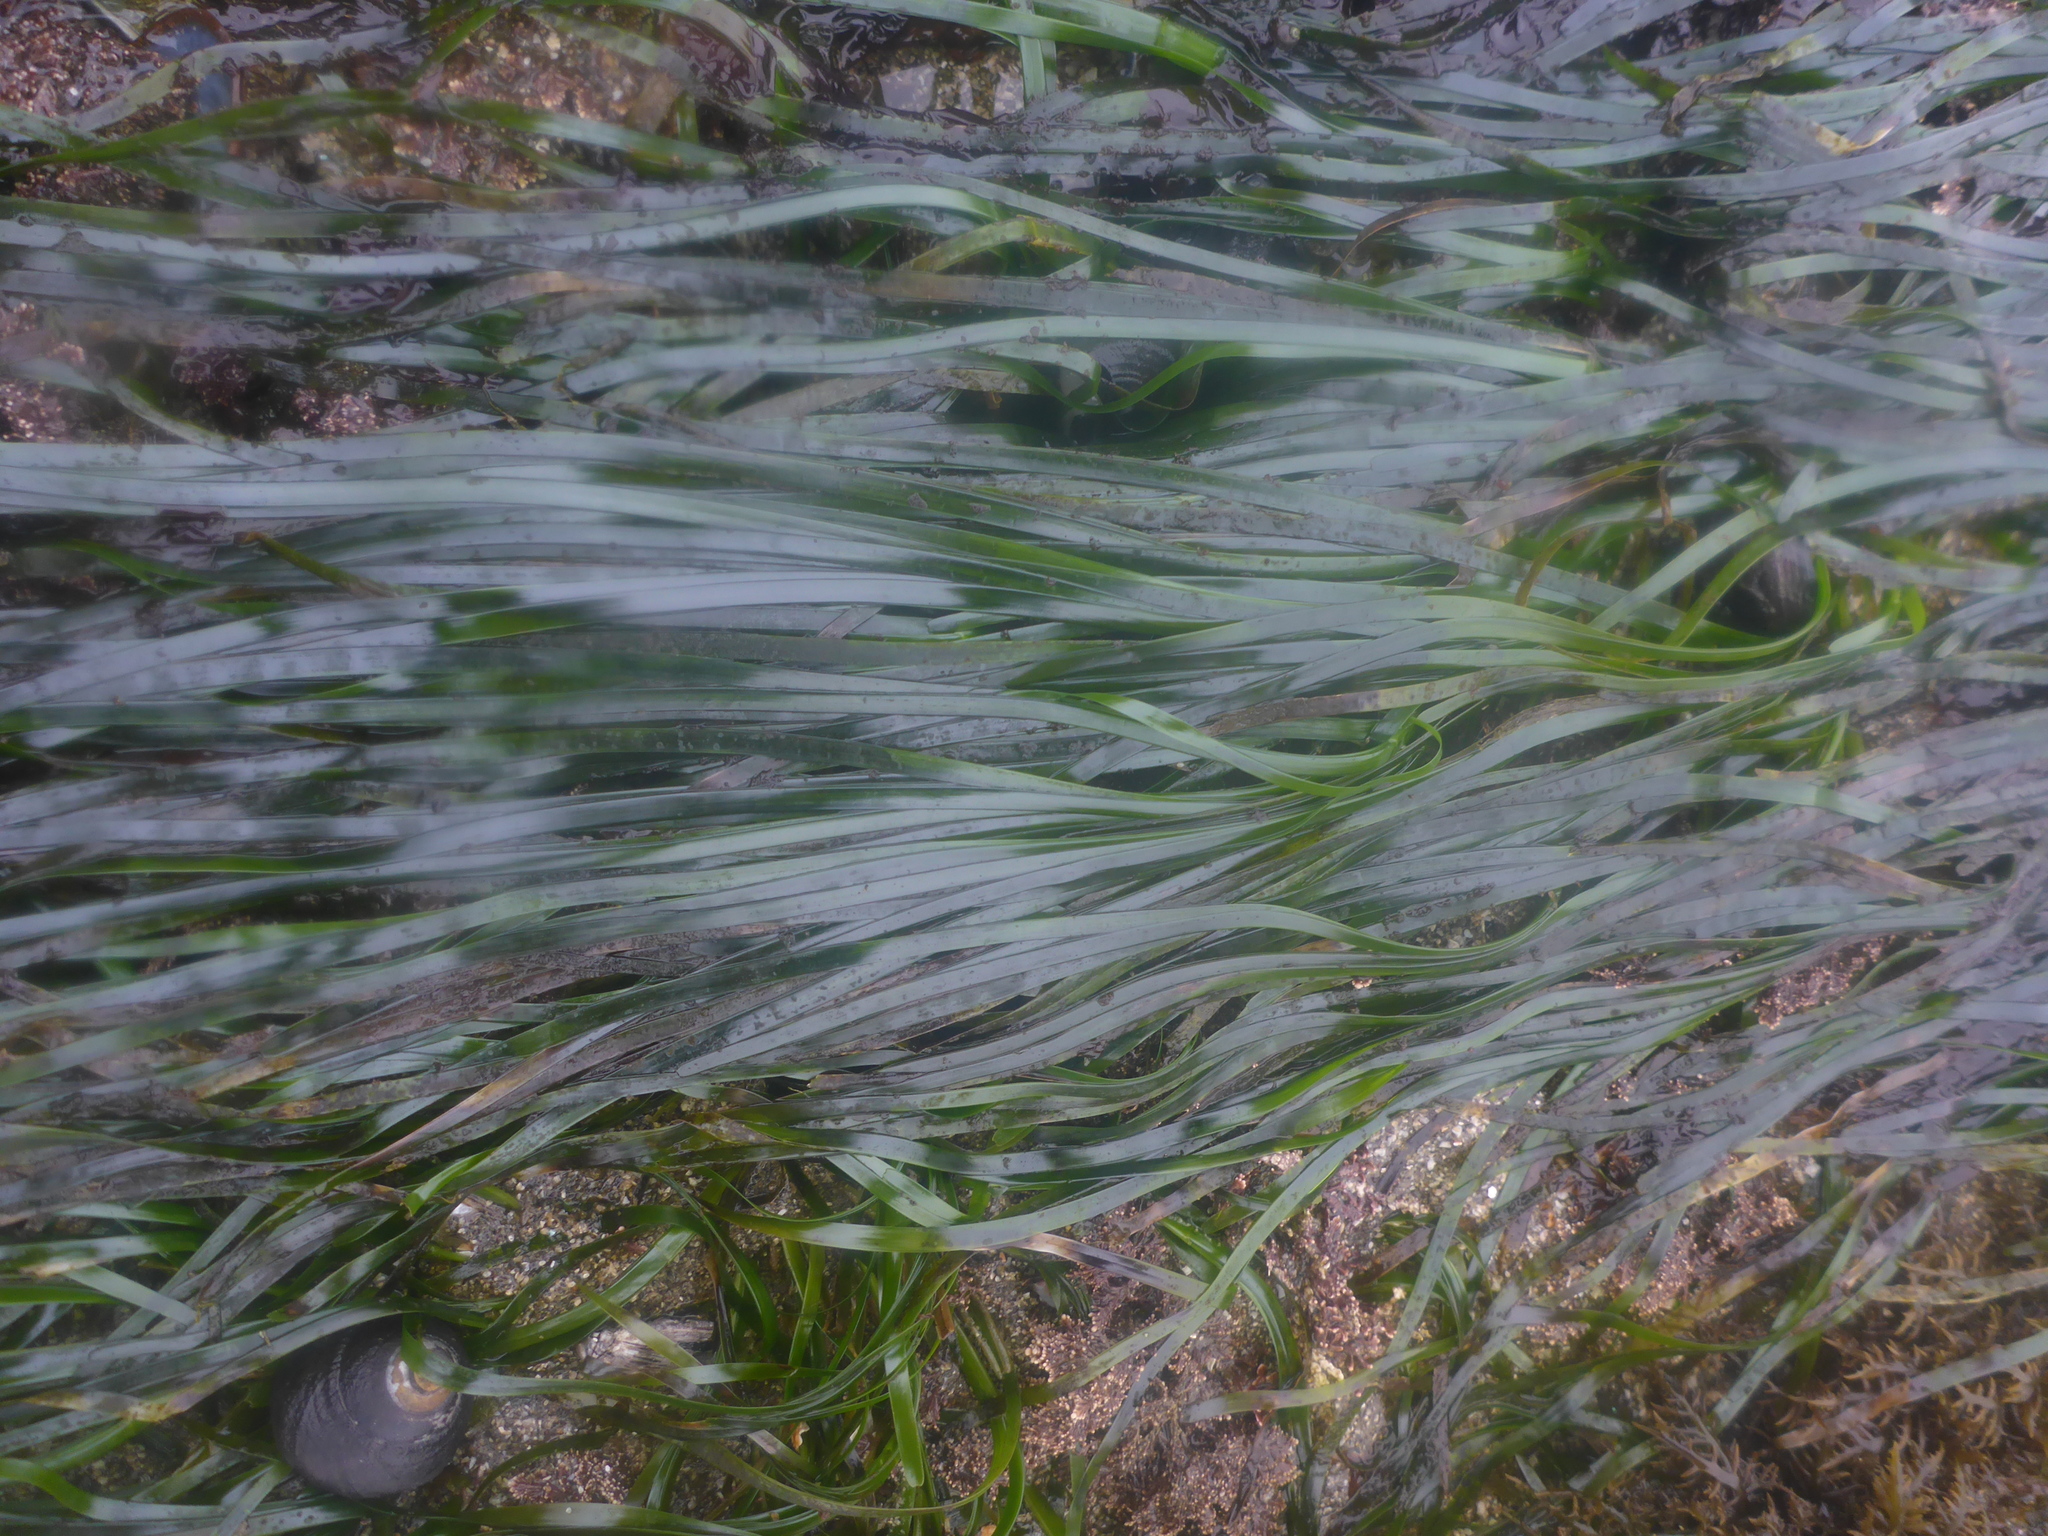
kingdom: Plantae
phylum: Tracheophyta
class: Liliopsida
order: Alismatales
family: Zosteraceae
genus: Phyllospadix
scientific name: Phyllospadix scouleri
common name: Species code: ps
